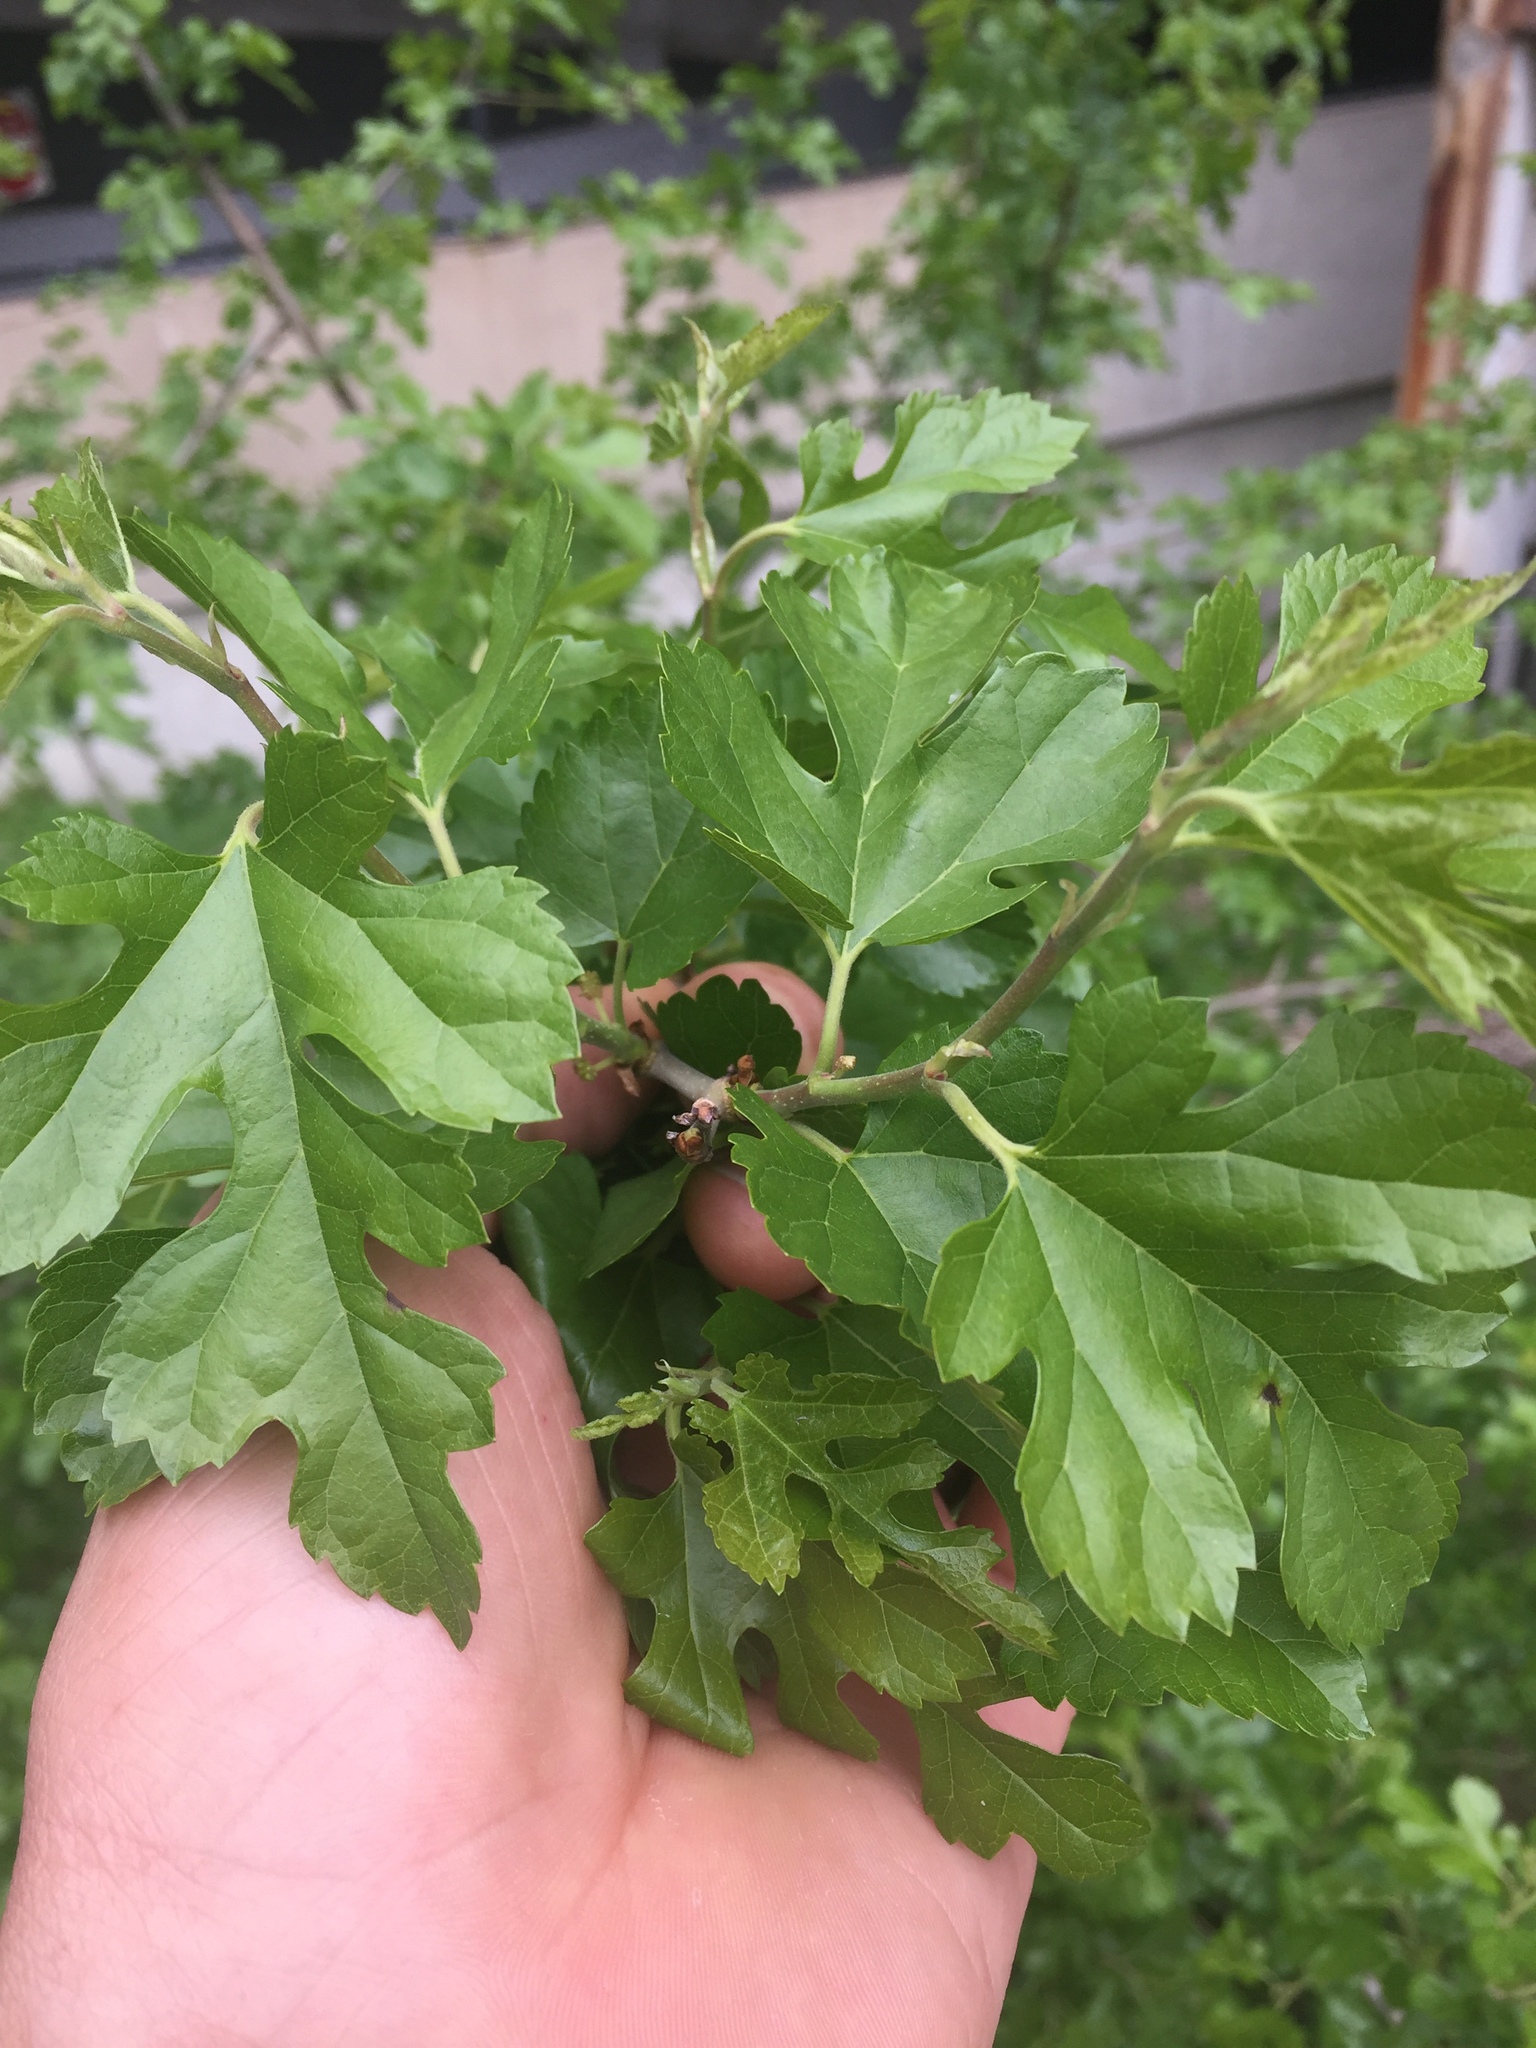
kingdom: Plantae
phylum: Tracheophyta
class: Magnoliopsida
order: Rosales
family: Moraceae
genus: Morus
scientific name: Morus alba
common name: White mulberry
